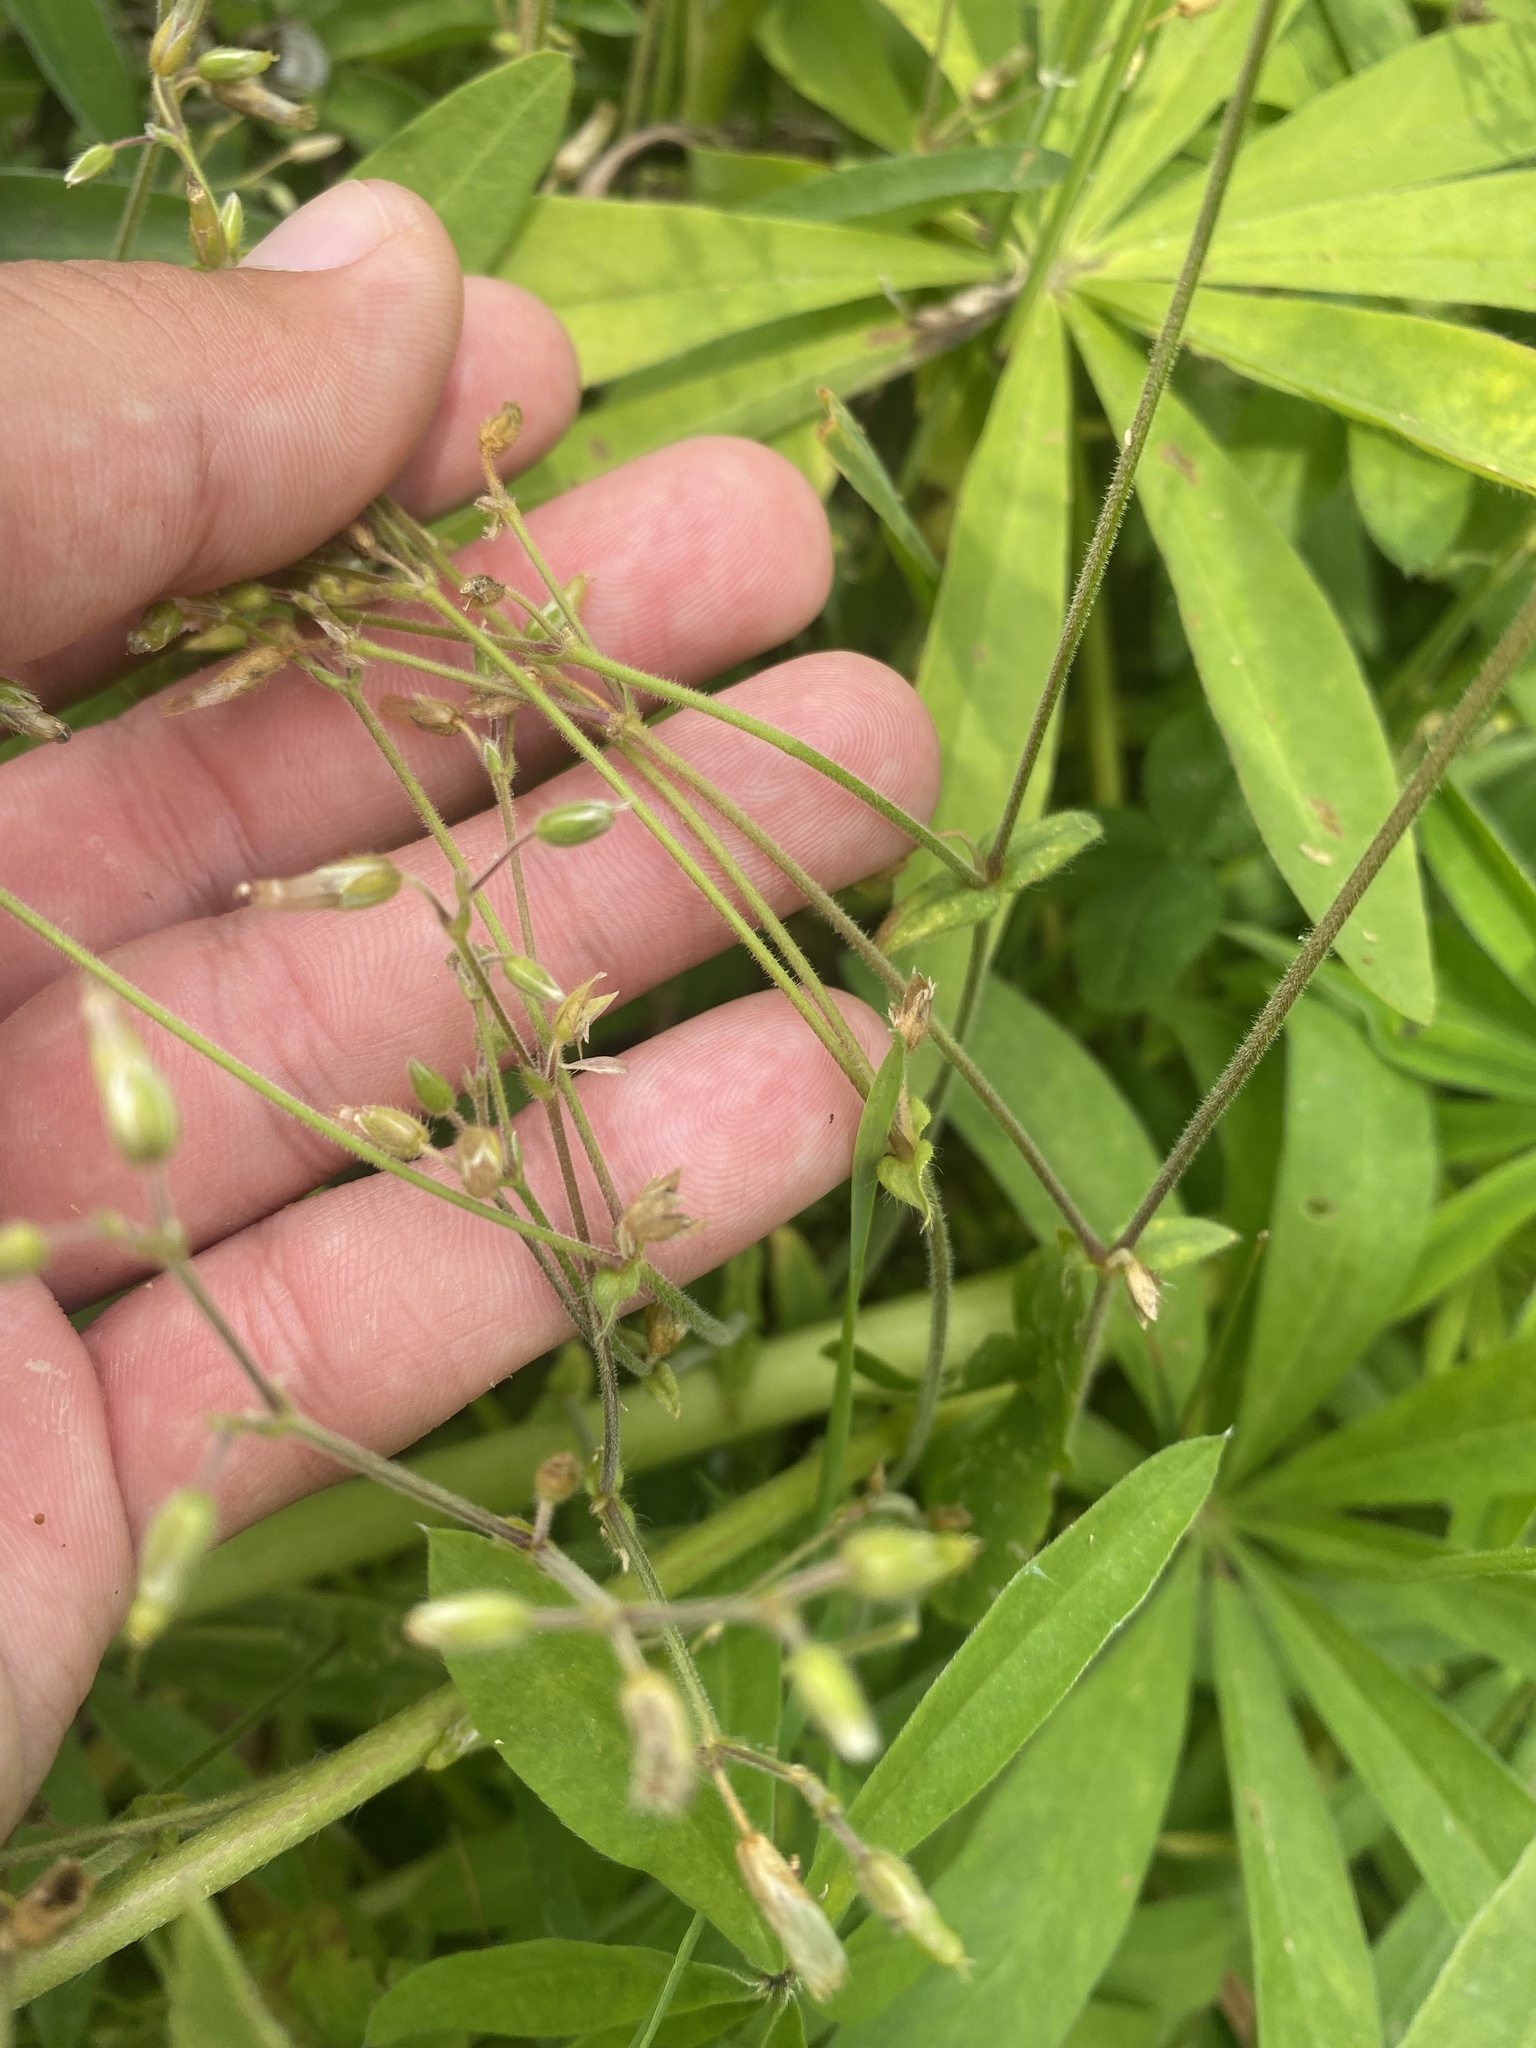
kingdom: Plantae
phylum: Tracheophyta
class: Magnoliopsida
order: Caryophyllales
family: Caryophyllaceae
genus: Cerastium
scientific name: Cerastium holosteoides
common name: Big chickweed
